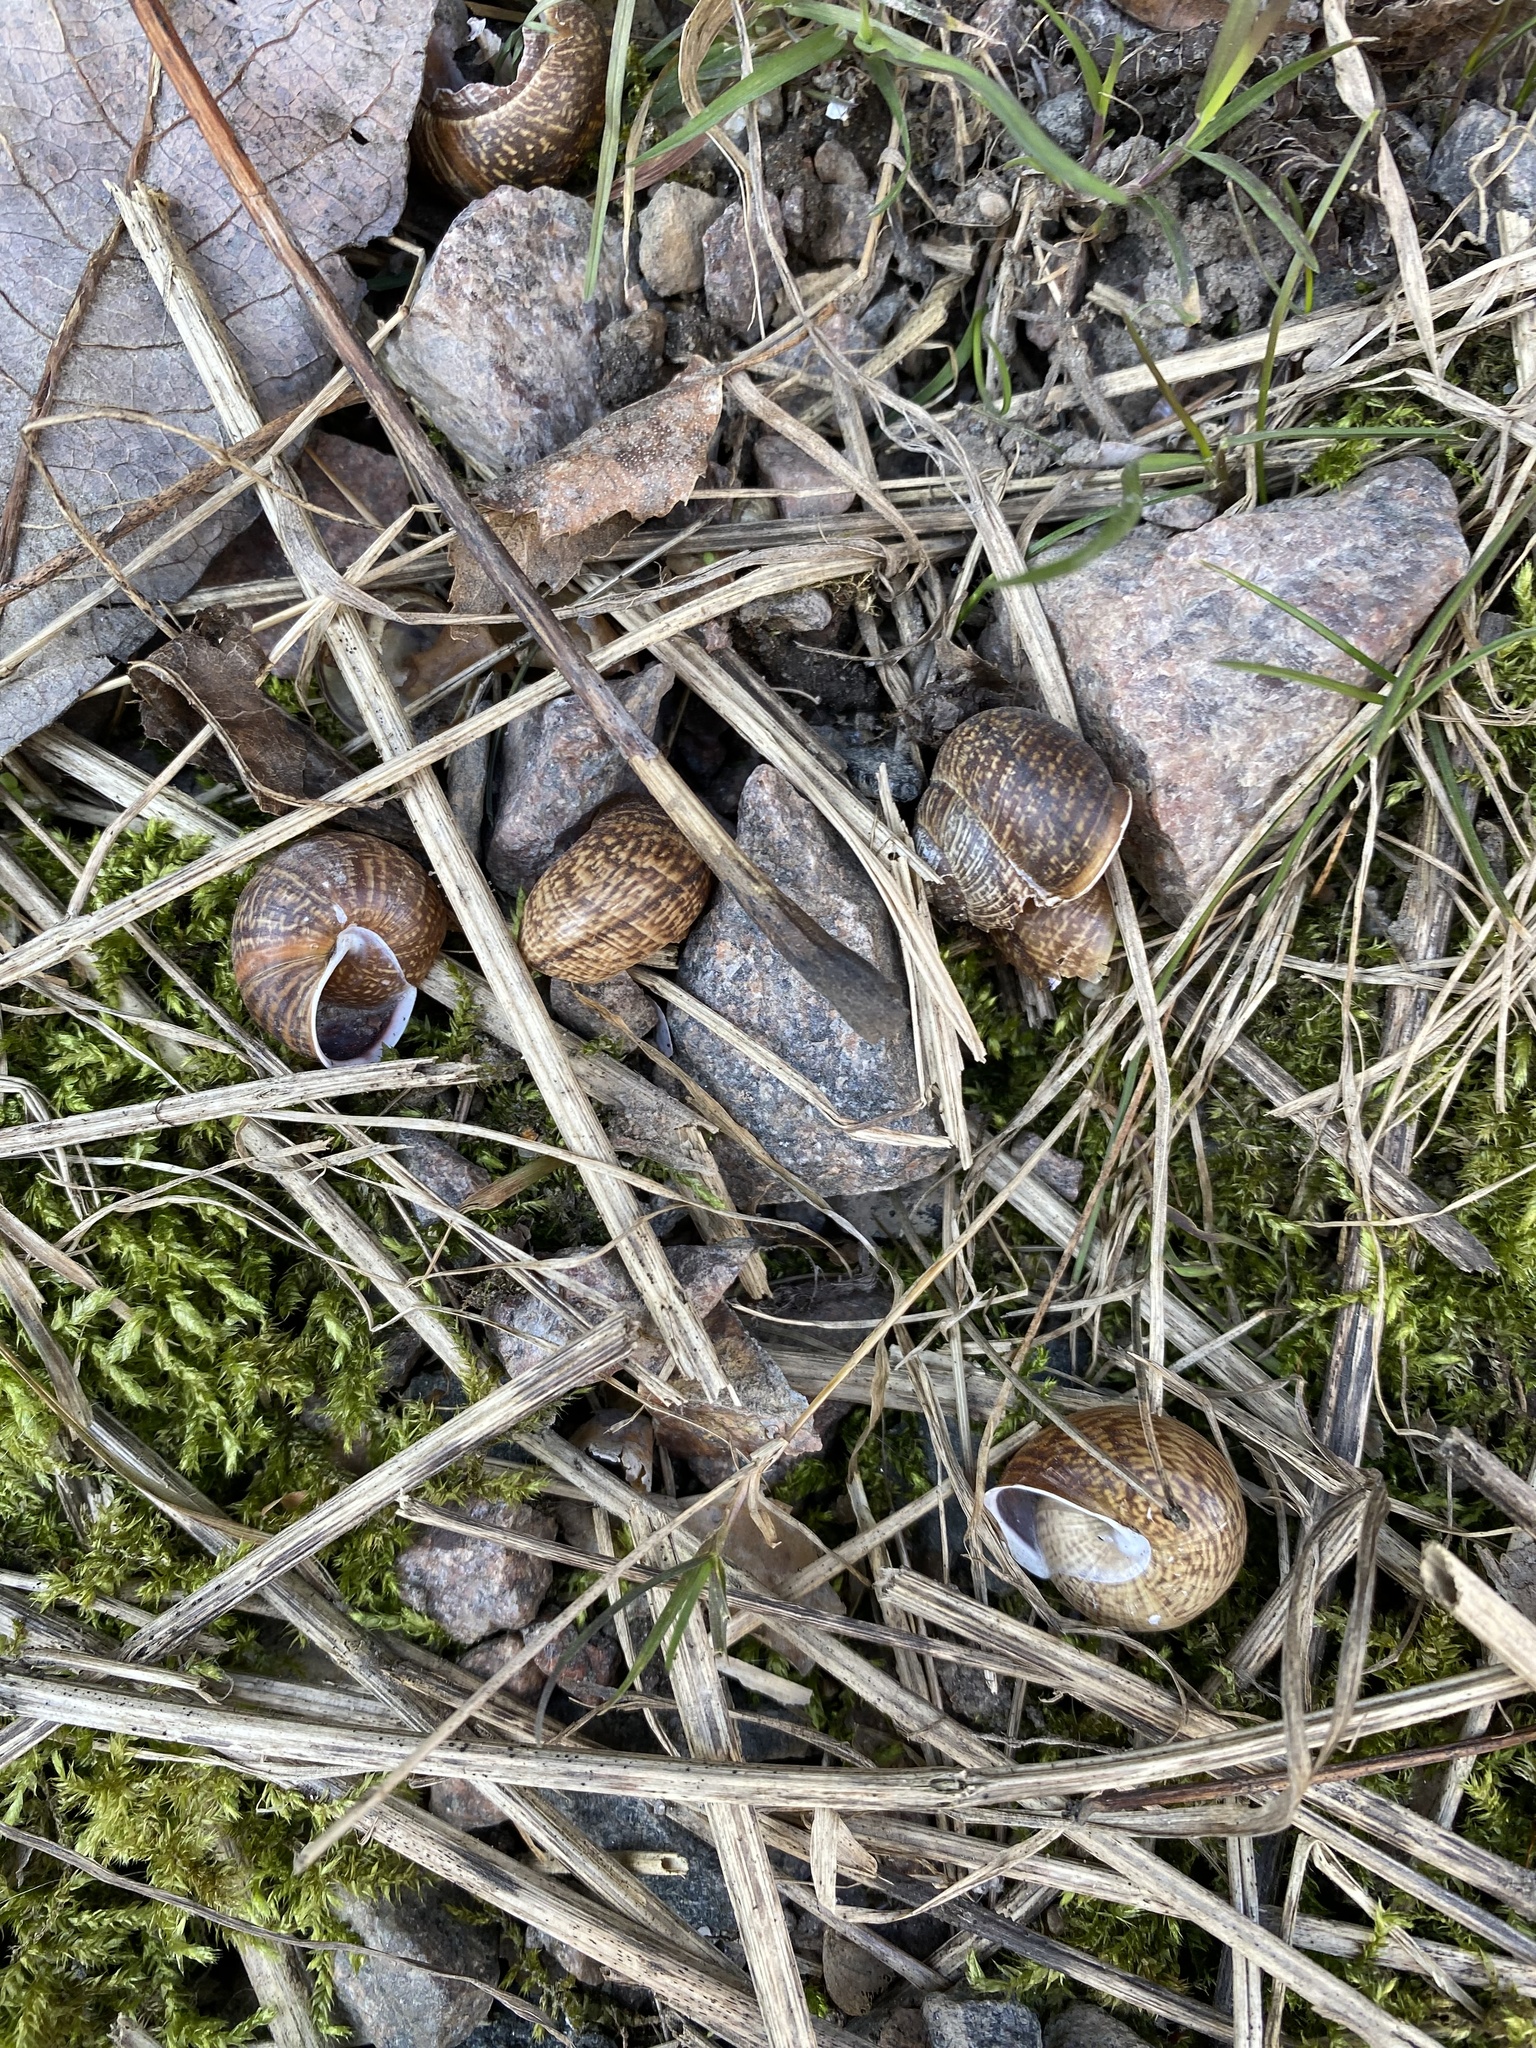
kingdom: Animalia
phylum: Mollusca
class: Gastropoda
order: Stylommatophora
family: Helicidae
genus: Arianta
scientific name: Arianta arbustorum
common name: Copse snail
